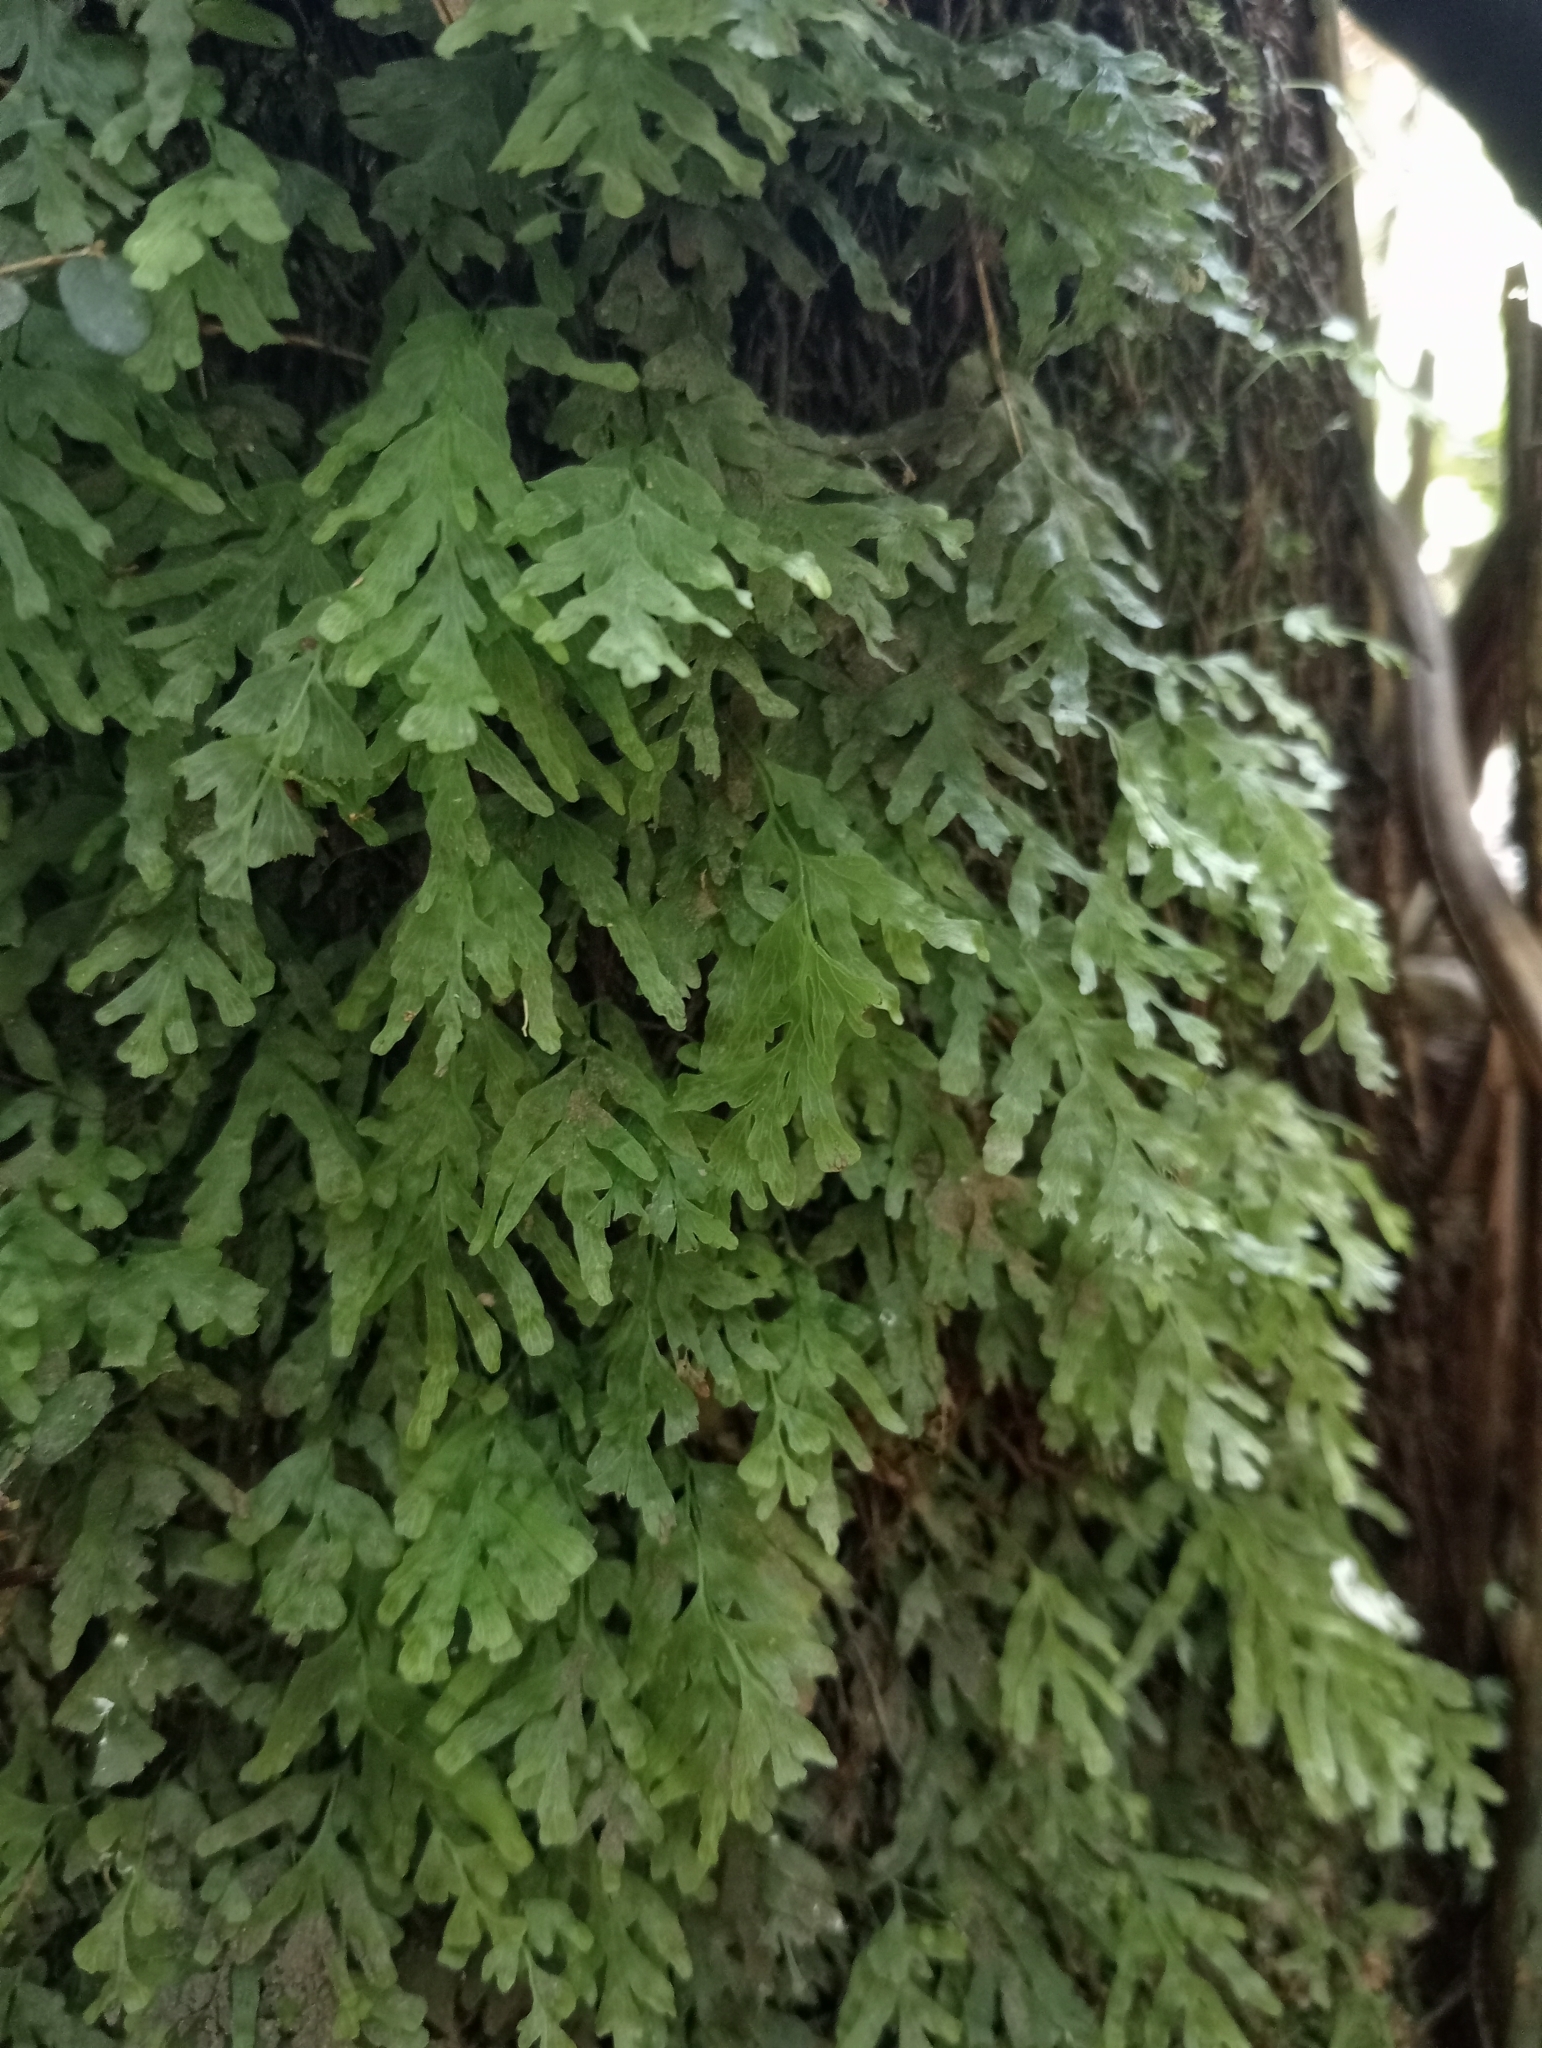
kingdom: Plantae
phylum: Tracheophyta
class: Polypodiopsida
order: Hymenophyllales
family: Hymenophyllaceae
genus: Polyphlebium
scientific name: Polyphlebium venosum
